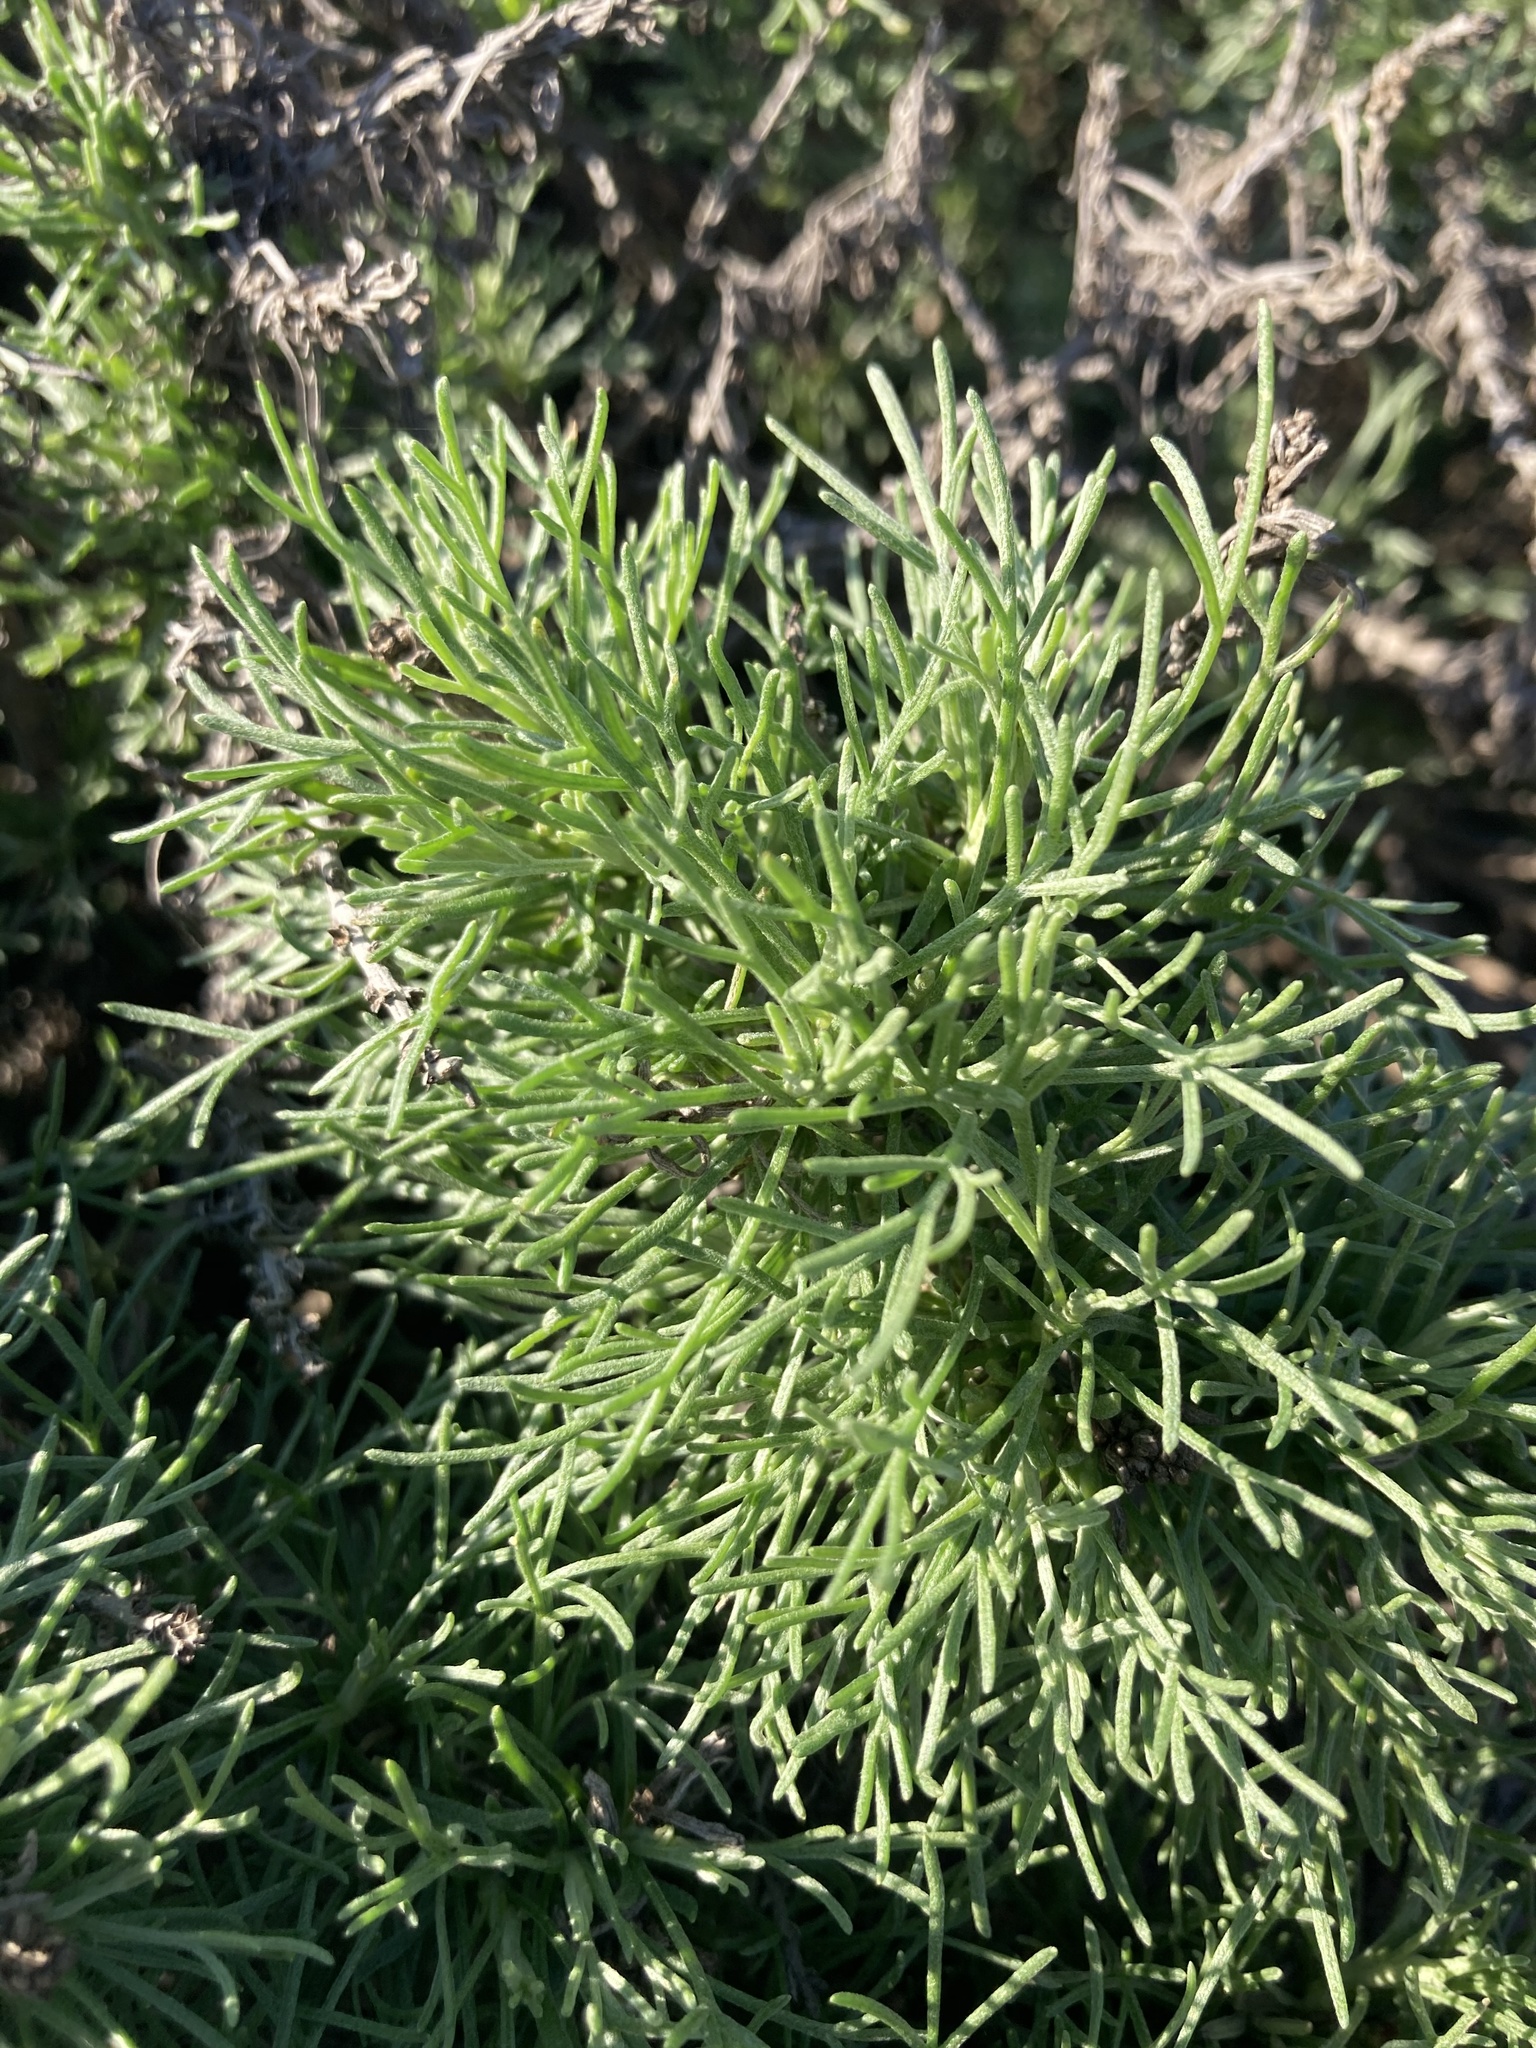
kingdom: Plantae
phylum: Tracheophyta
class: Magnoliopsida
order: Asterales
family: Asteraceae
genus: Artemisia
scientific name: Artemisia californica
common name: California sagebrush
